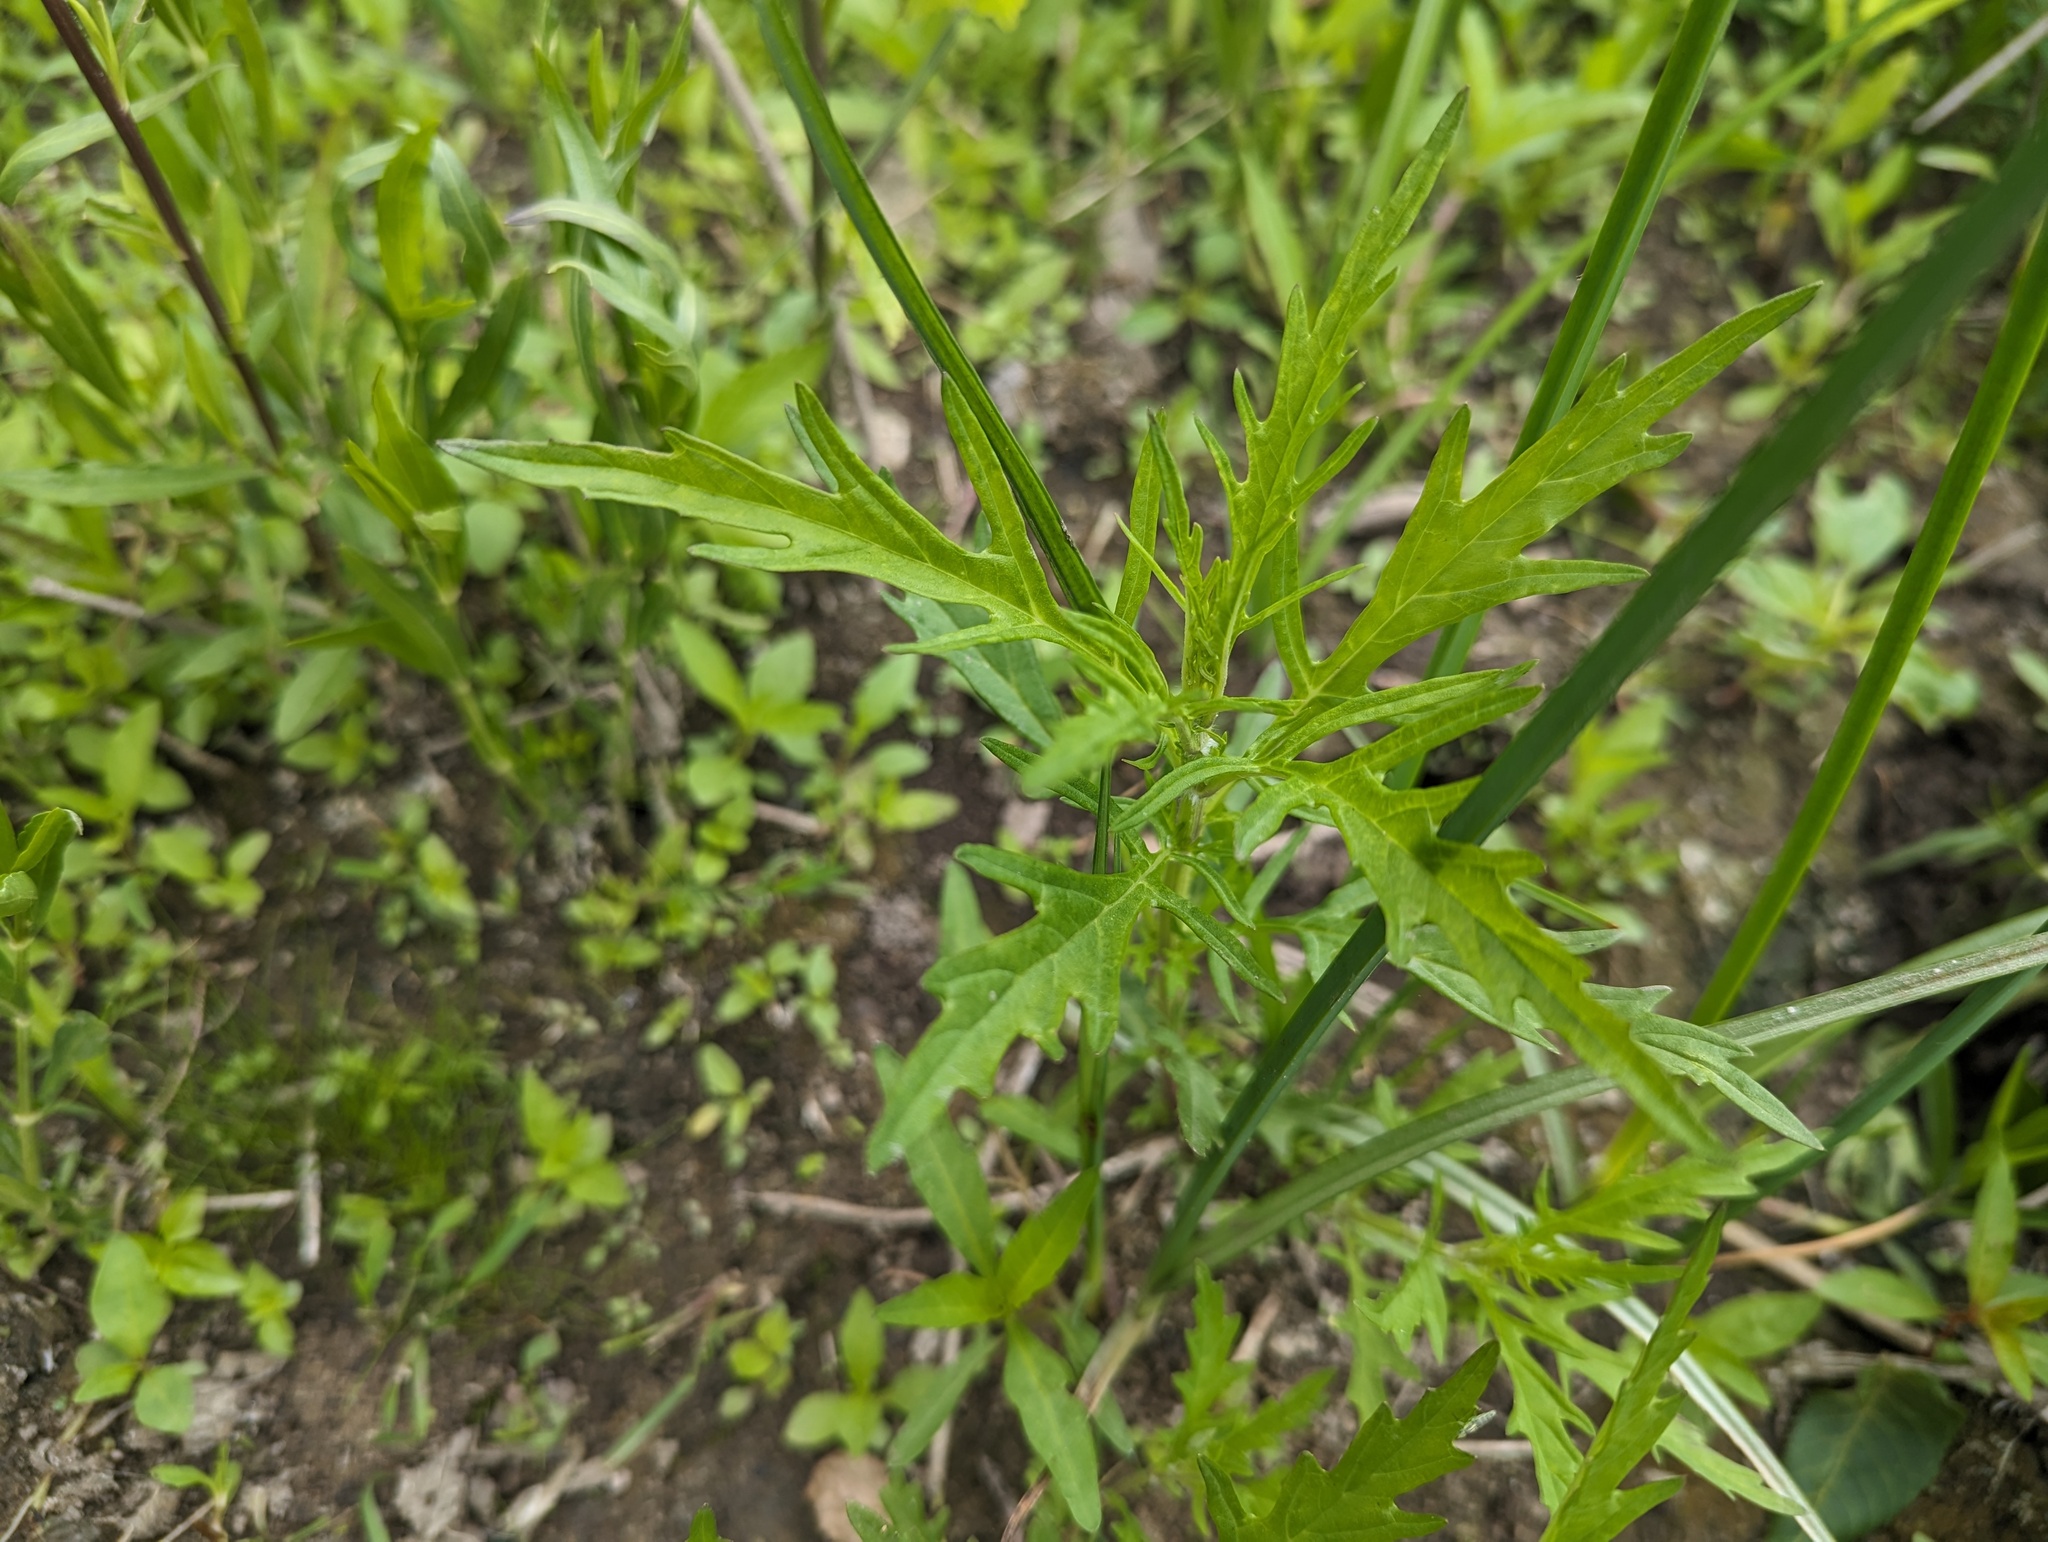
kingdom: Plantae
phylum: Tracheophyta
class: Magnoliopsida
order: Lamiales
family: Lamiaceae
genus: Lycopus
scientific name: Lycopus americanus
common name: American bugleweed
